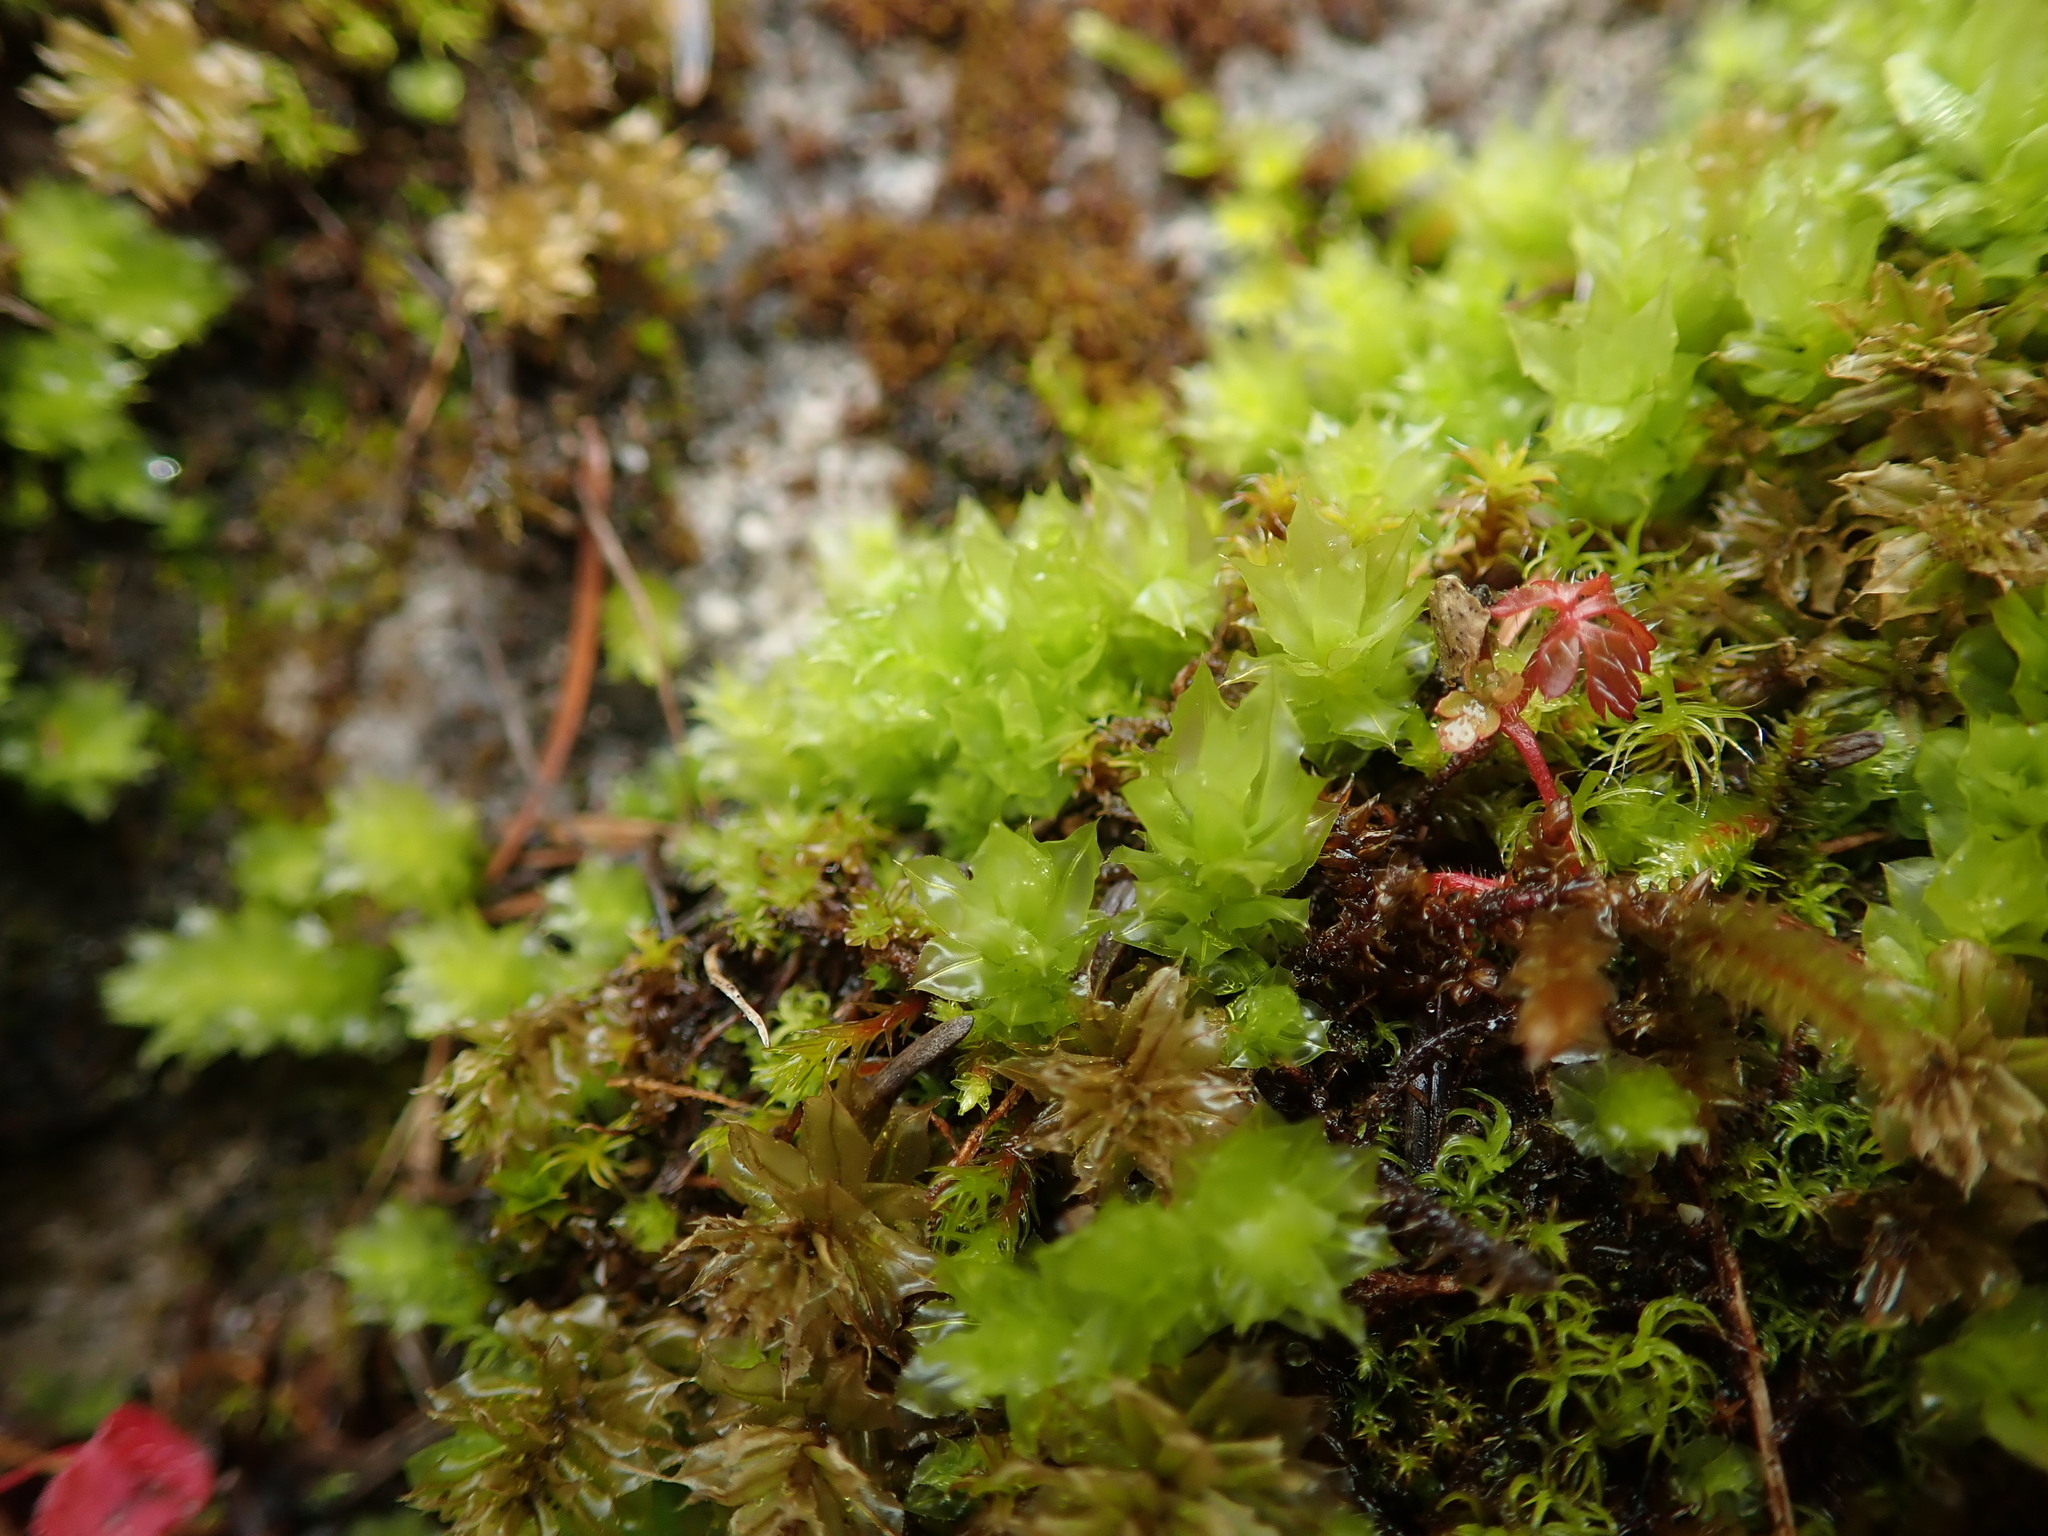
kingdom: Plantae
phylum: Bryophyta
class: Bryopsida
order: Bryales
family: Mniaceae
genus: Plagiomnium
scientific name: Plagiomnium venustum
